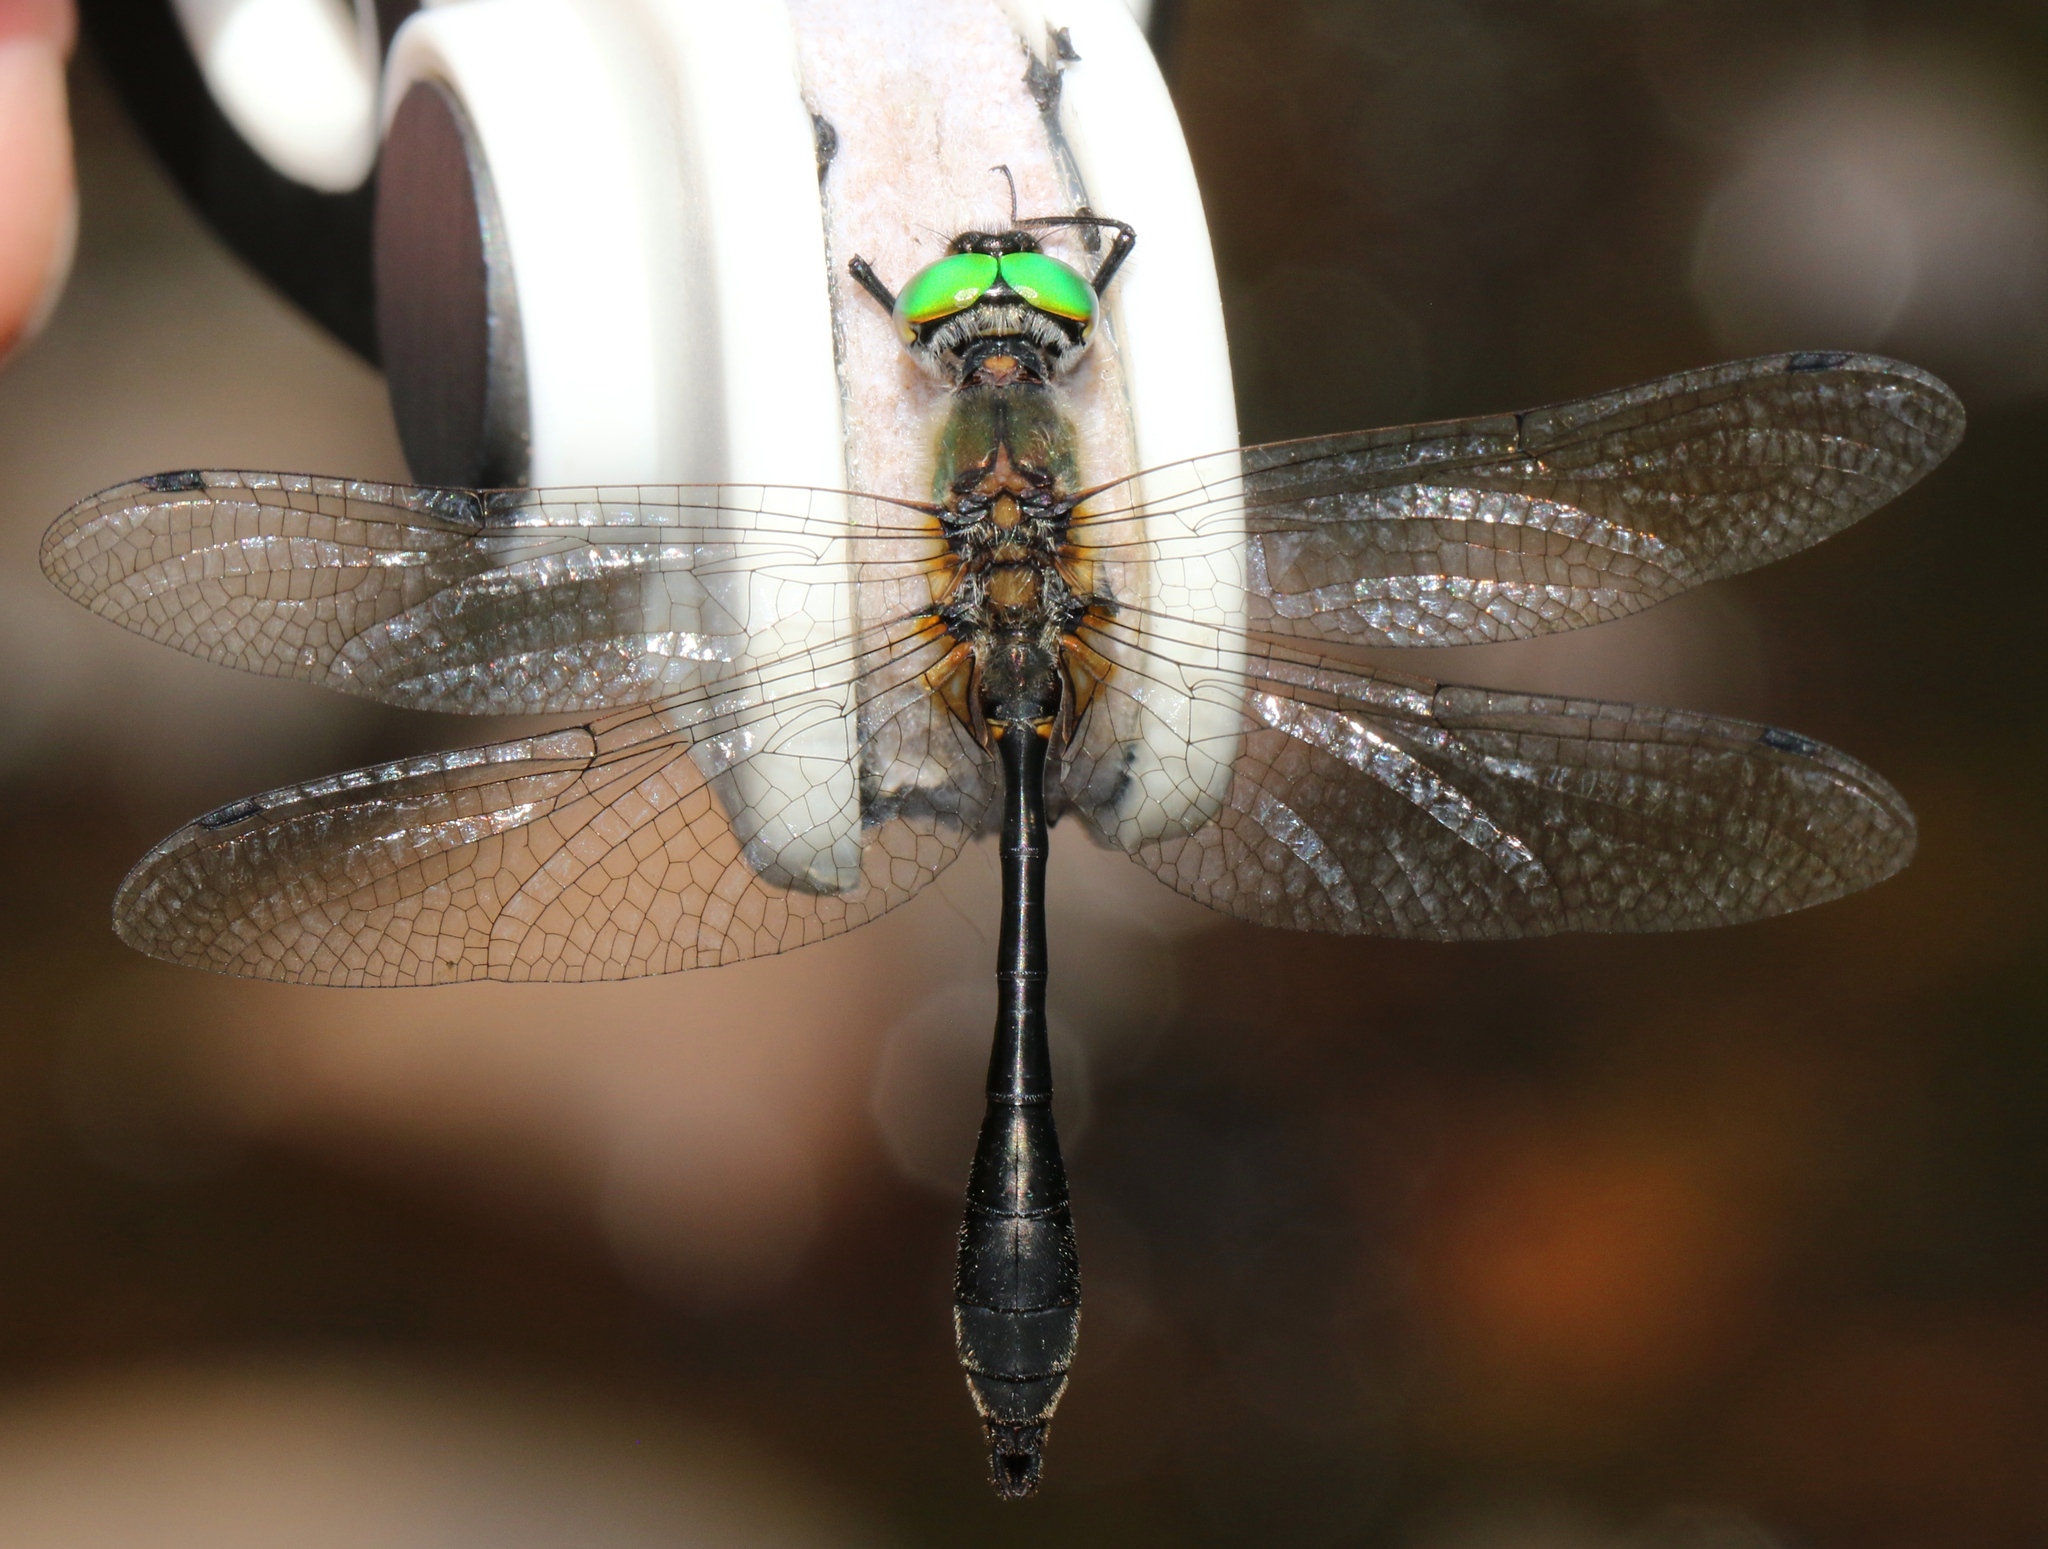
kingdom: Animalia
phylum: Arthropoda
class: Insecta
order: Odonata
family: Corduliidae
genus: Dorocordulia
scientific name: Dorocordulia libera
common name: Racket-tailed emerald
